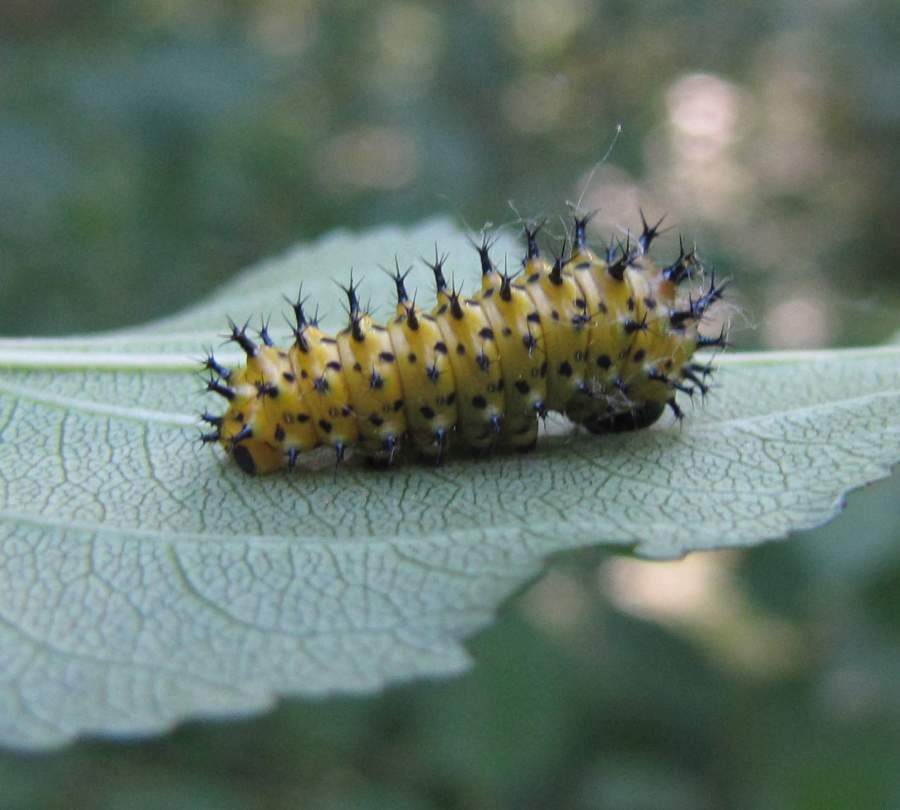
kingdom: Animalia
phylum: Arthropoda
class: Insecta
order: Lepidoptera
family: Saturniidae
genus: Hyalophora
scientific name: Hyalophora cecropia
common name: Cecropia silkmoth
